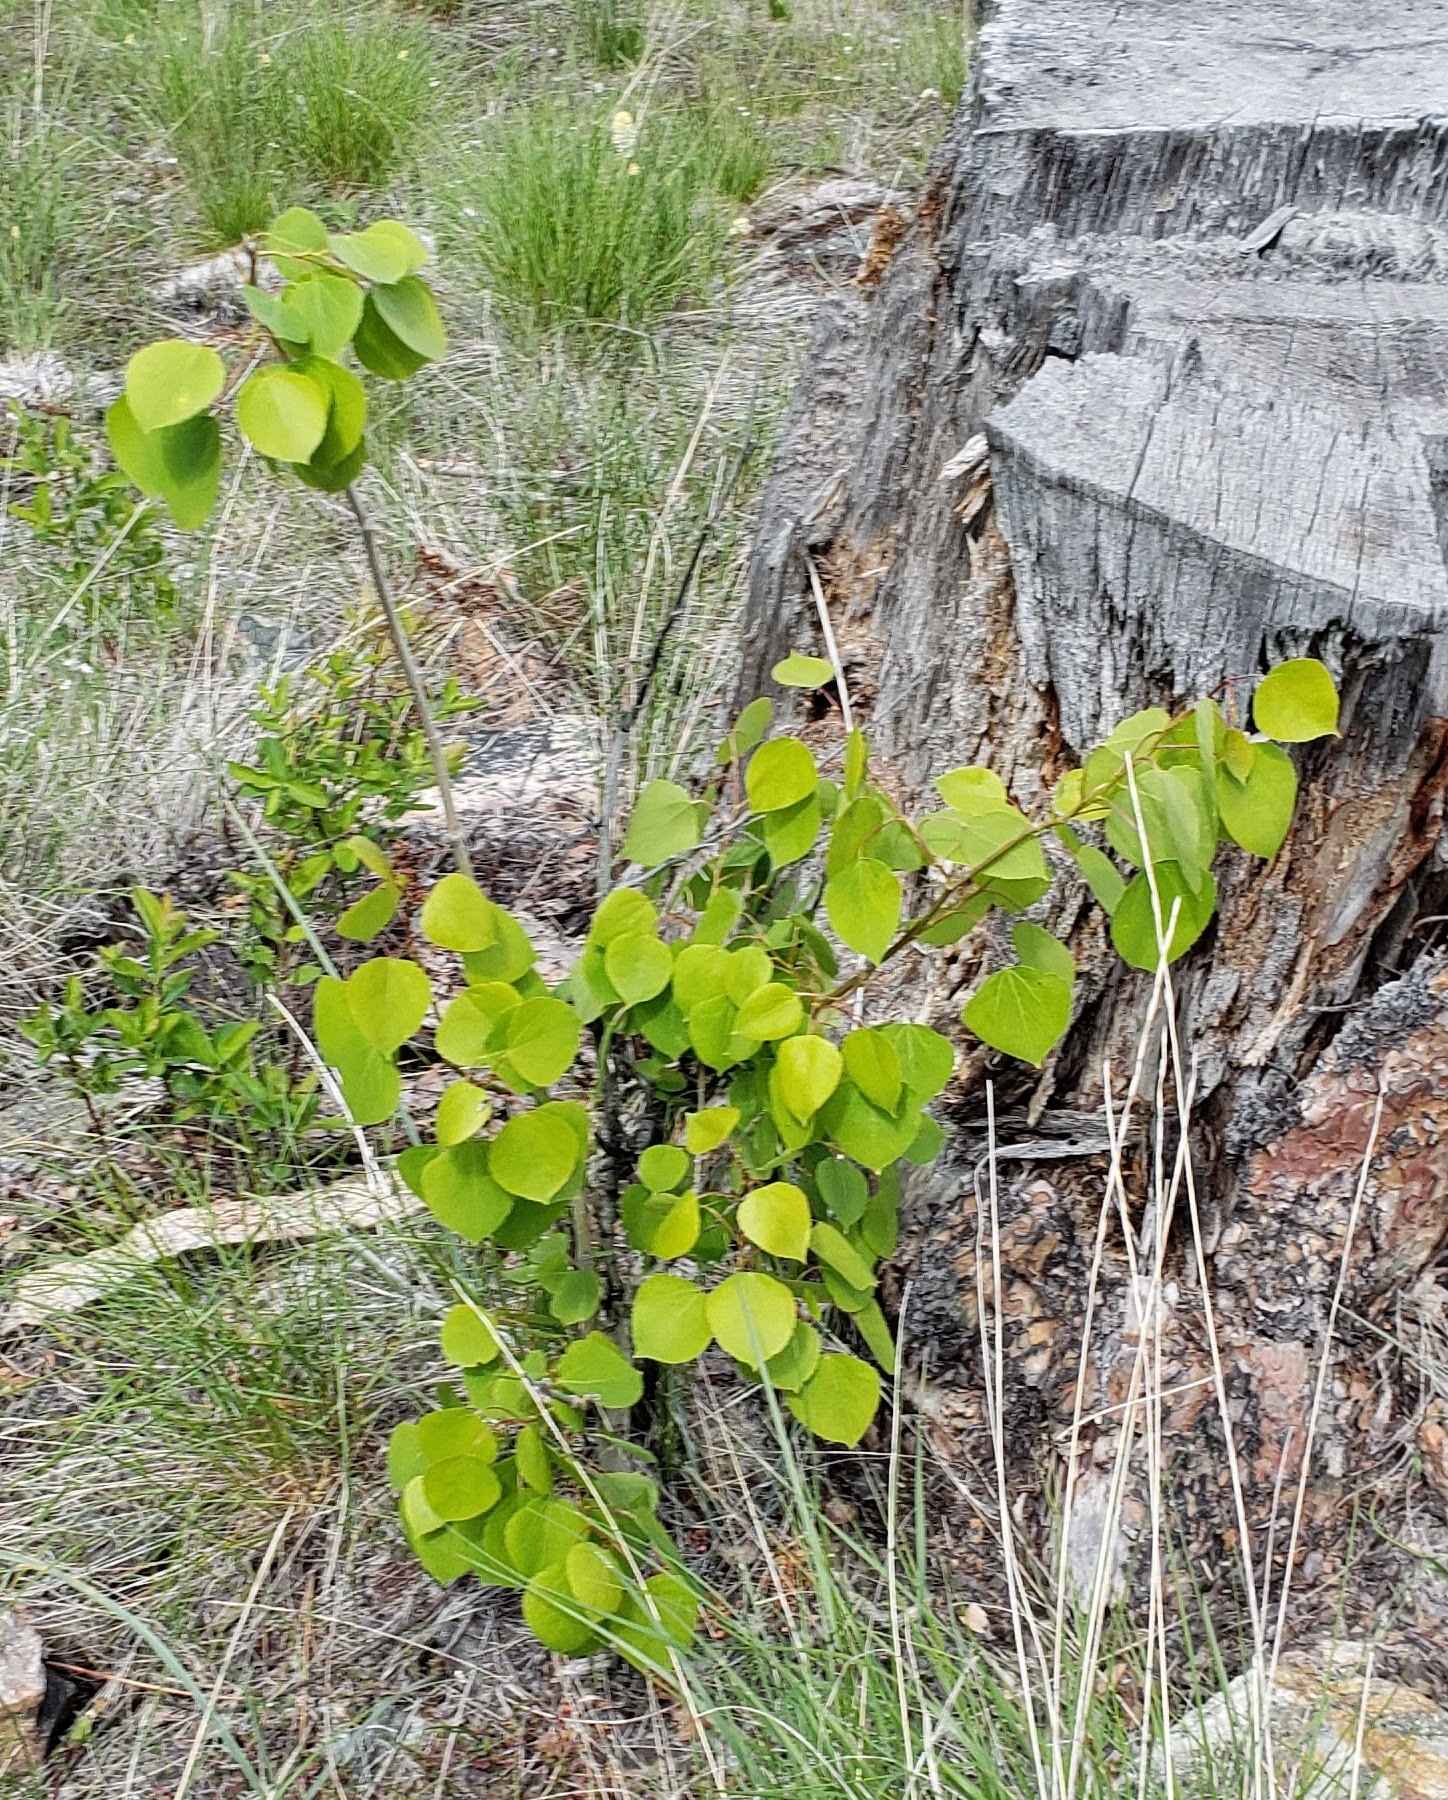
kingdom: Plantae
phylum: Tracheophyta
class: Magnoliopsida
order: Malpighiales
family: Salicaceae
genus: Populus
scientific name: Populus tremuloides
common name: Quaking aspen
